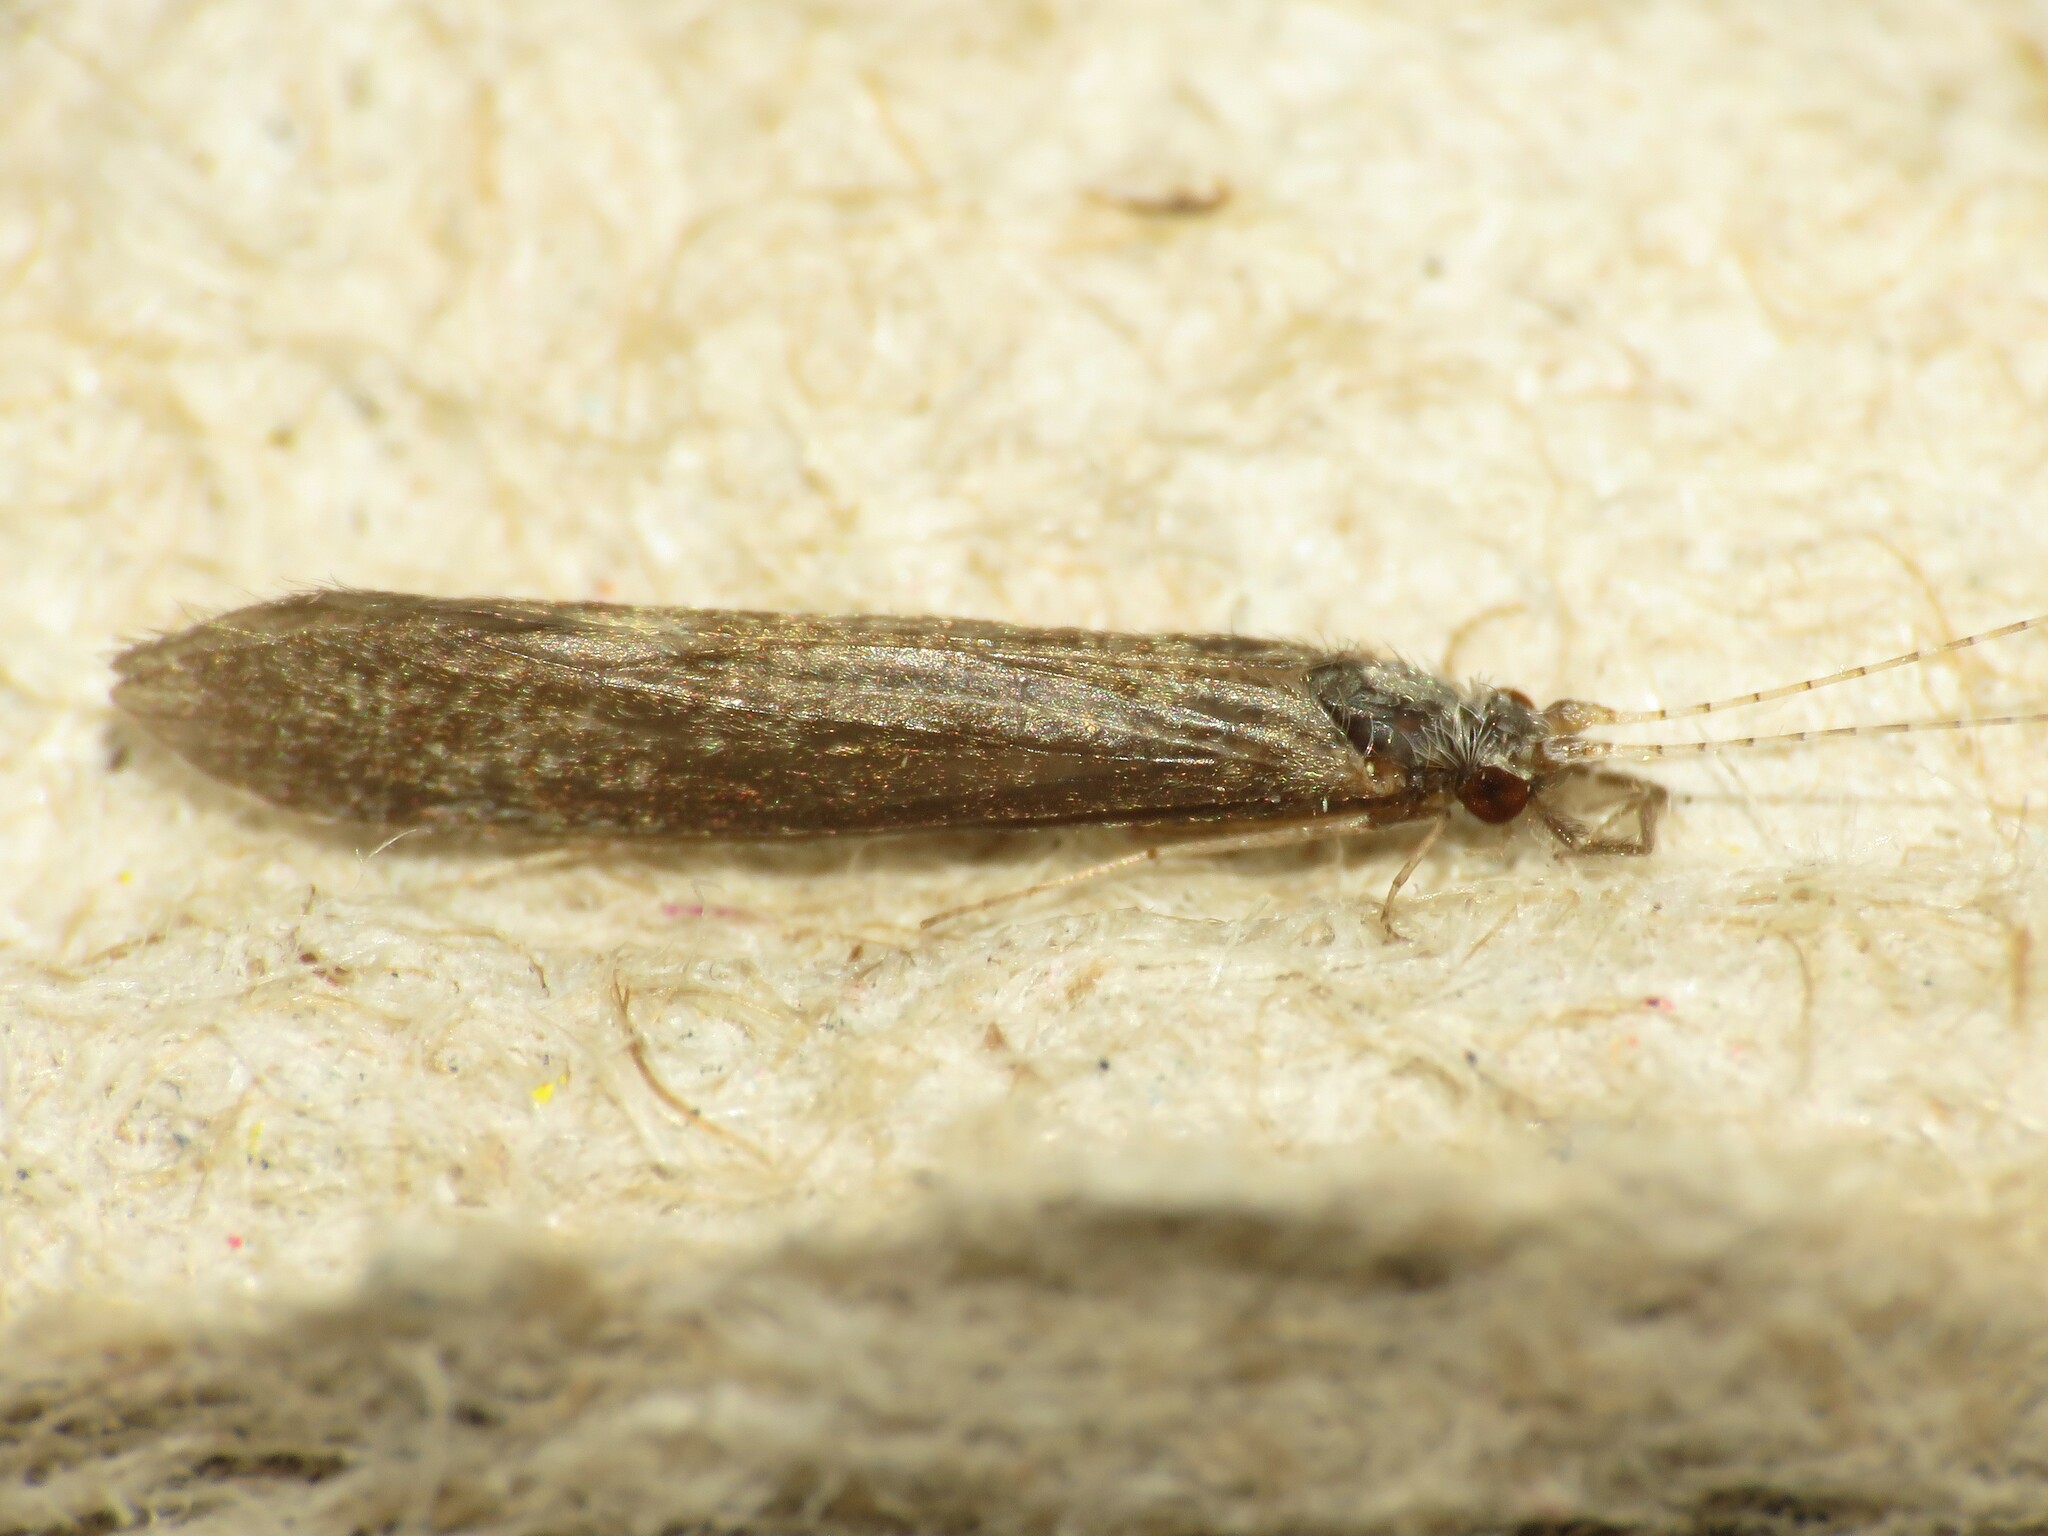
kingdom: Animalia
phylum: Arthropoda
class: Insecta
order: Trichoptera
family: Leptoceridae
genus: Leptocerus
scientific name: Leptocerus americanus
